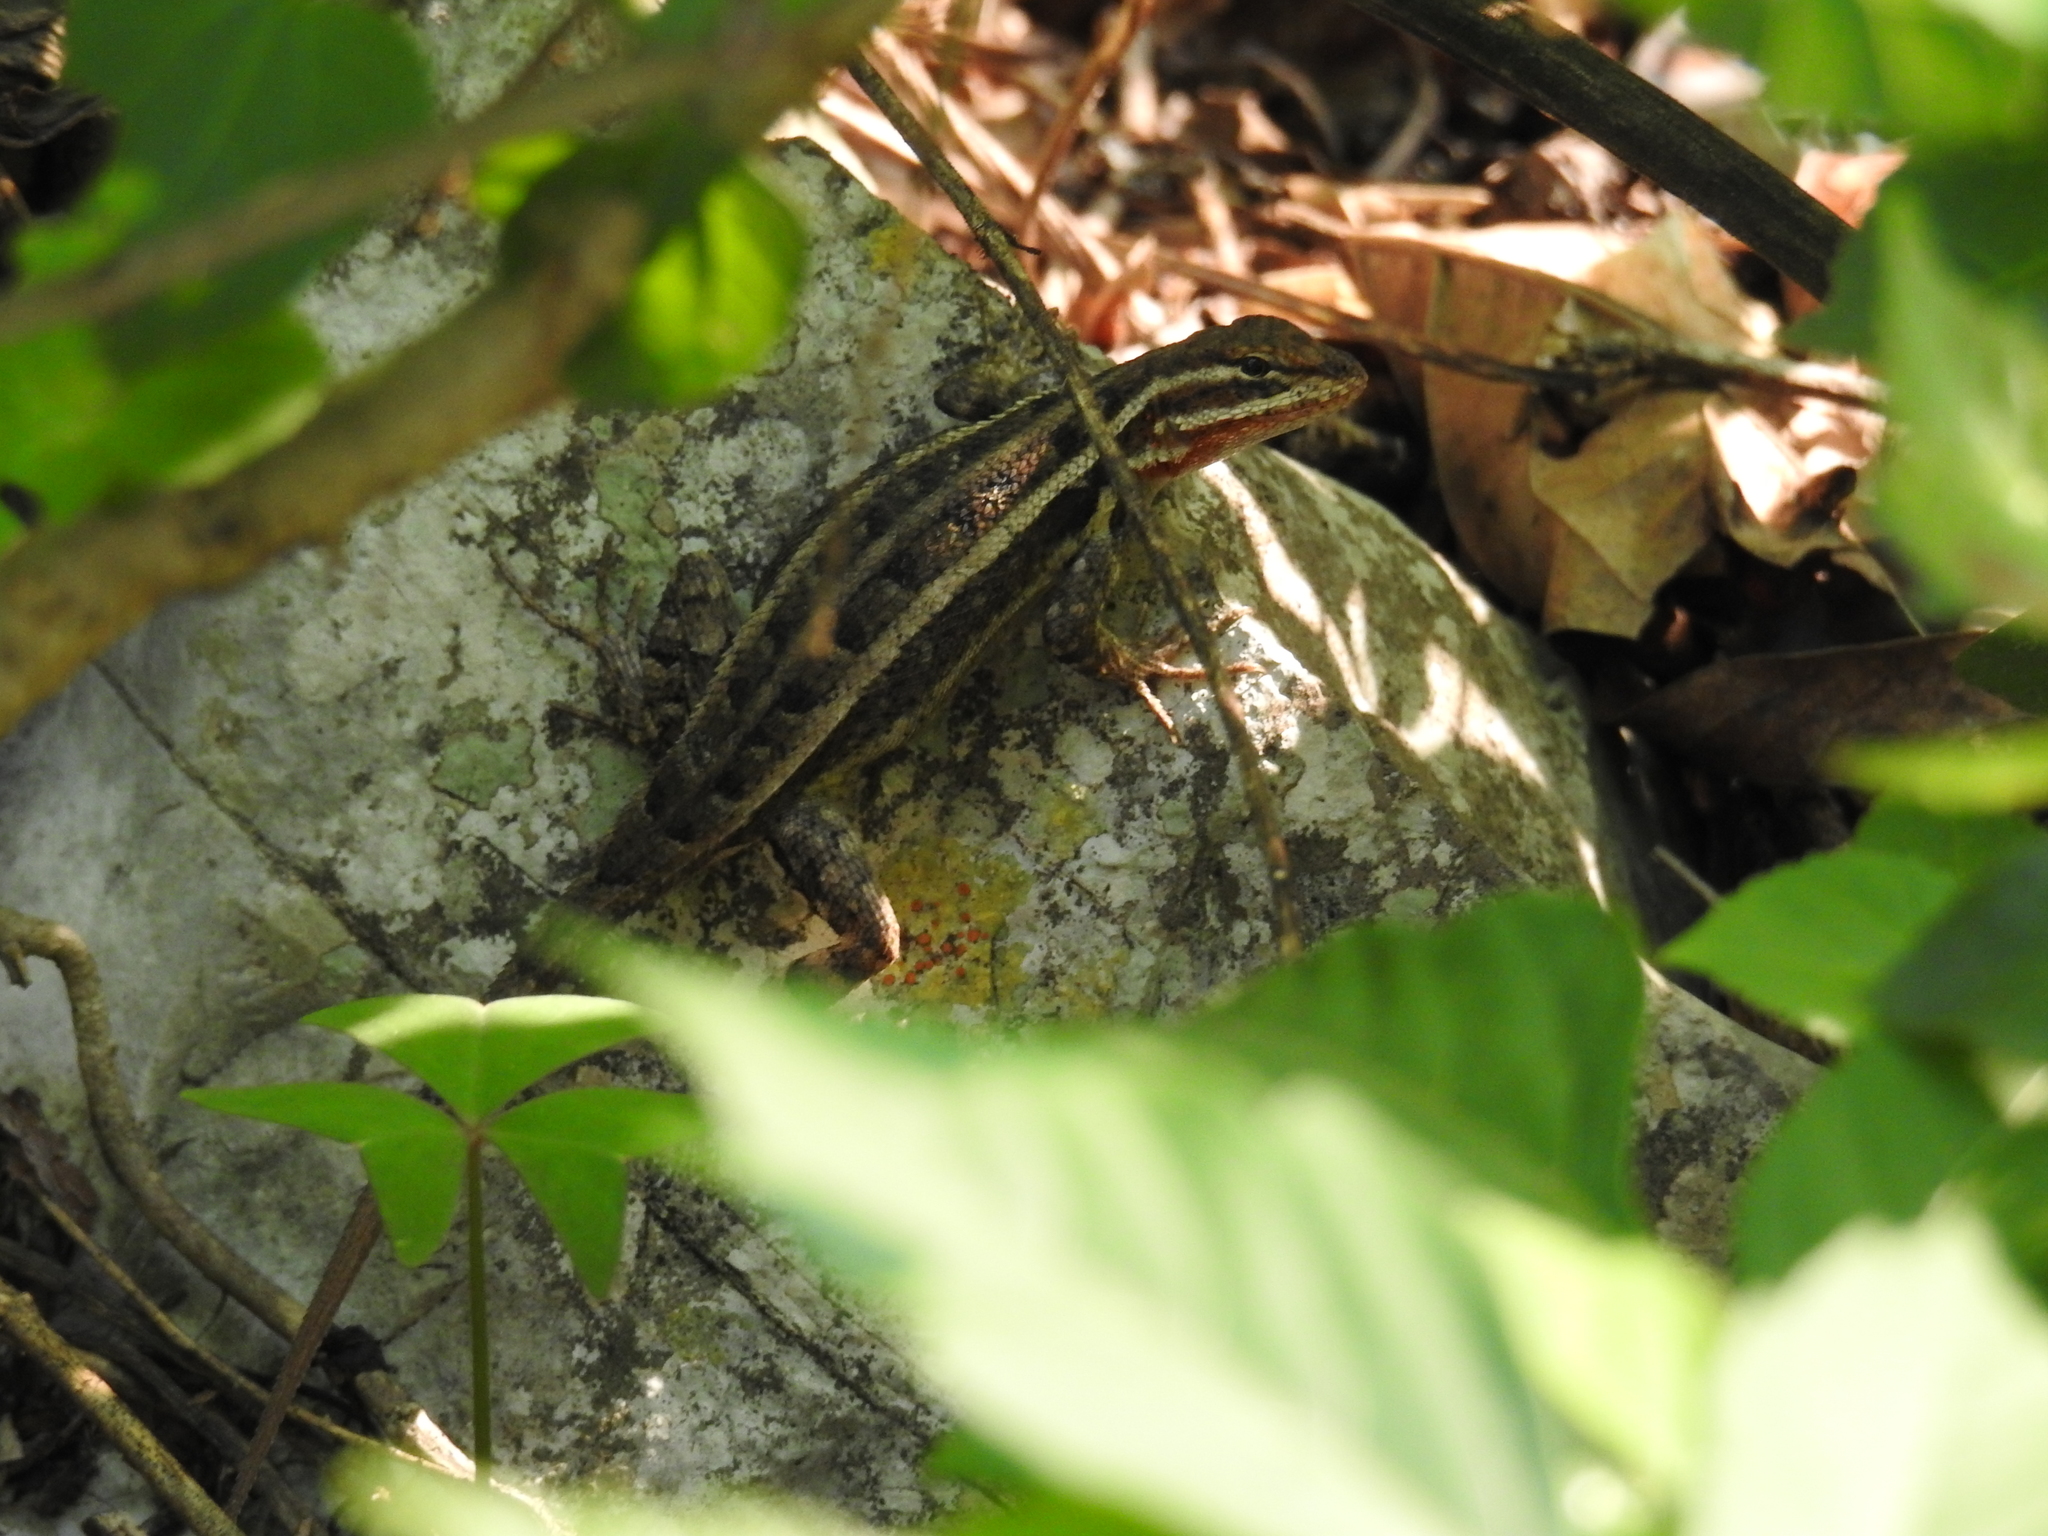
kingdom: Animalia
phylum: Chordata
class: Squamata
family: Phrynosomatidae
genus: Sceloporus
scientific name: Sceloporus variabilis
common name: Rosebelly lizard
